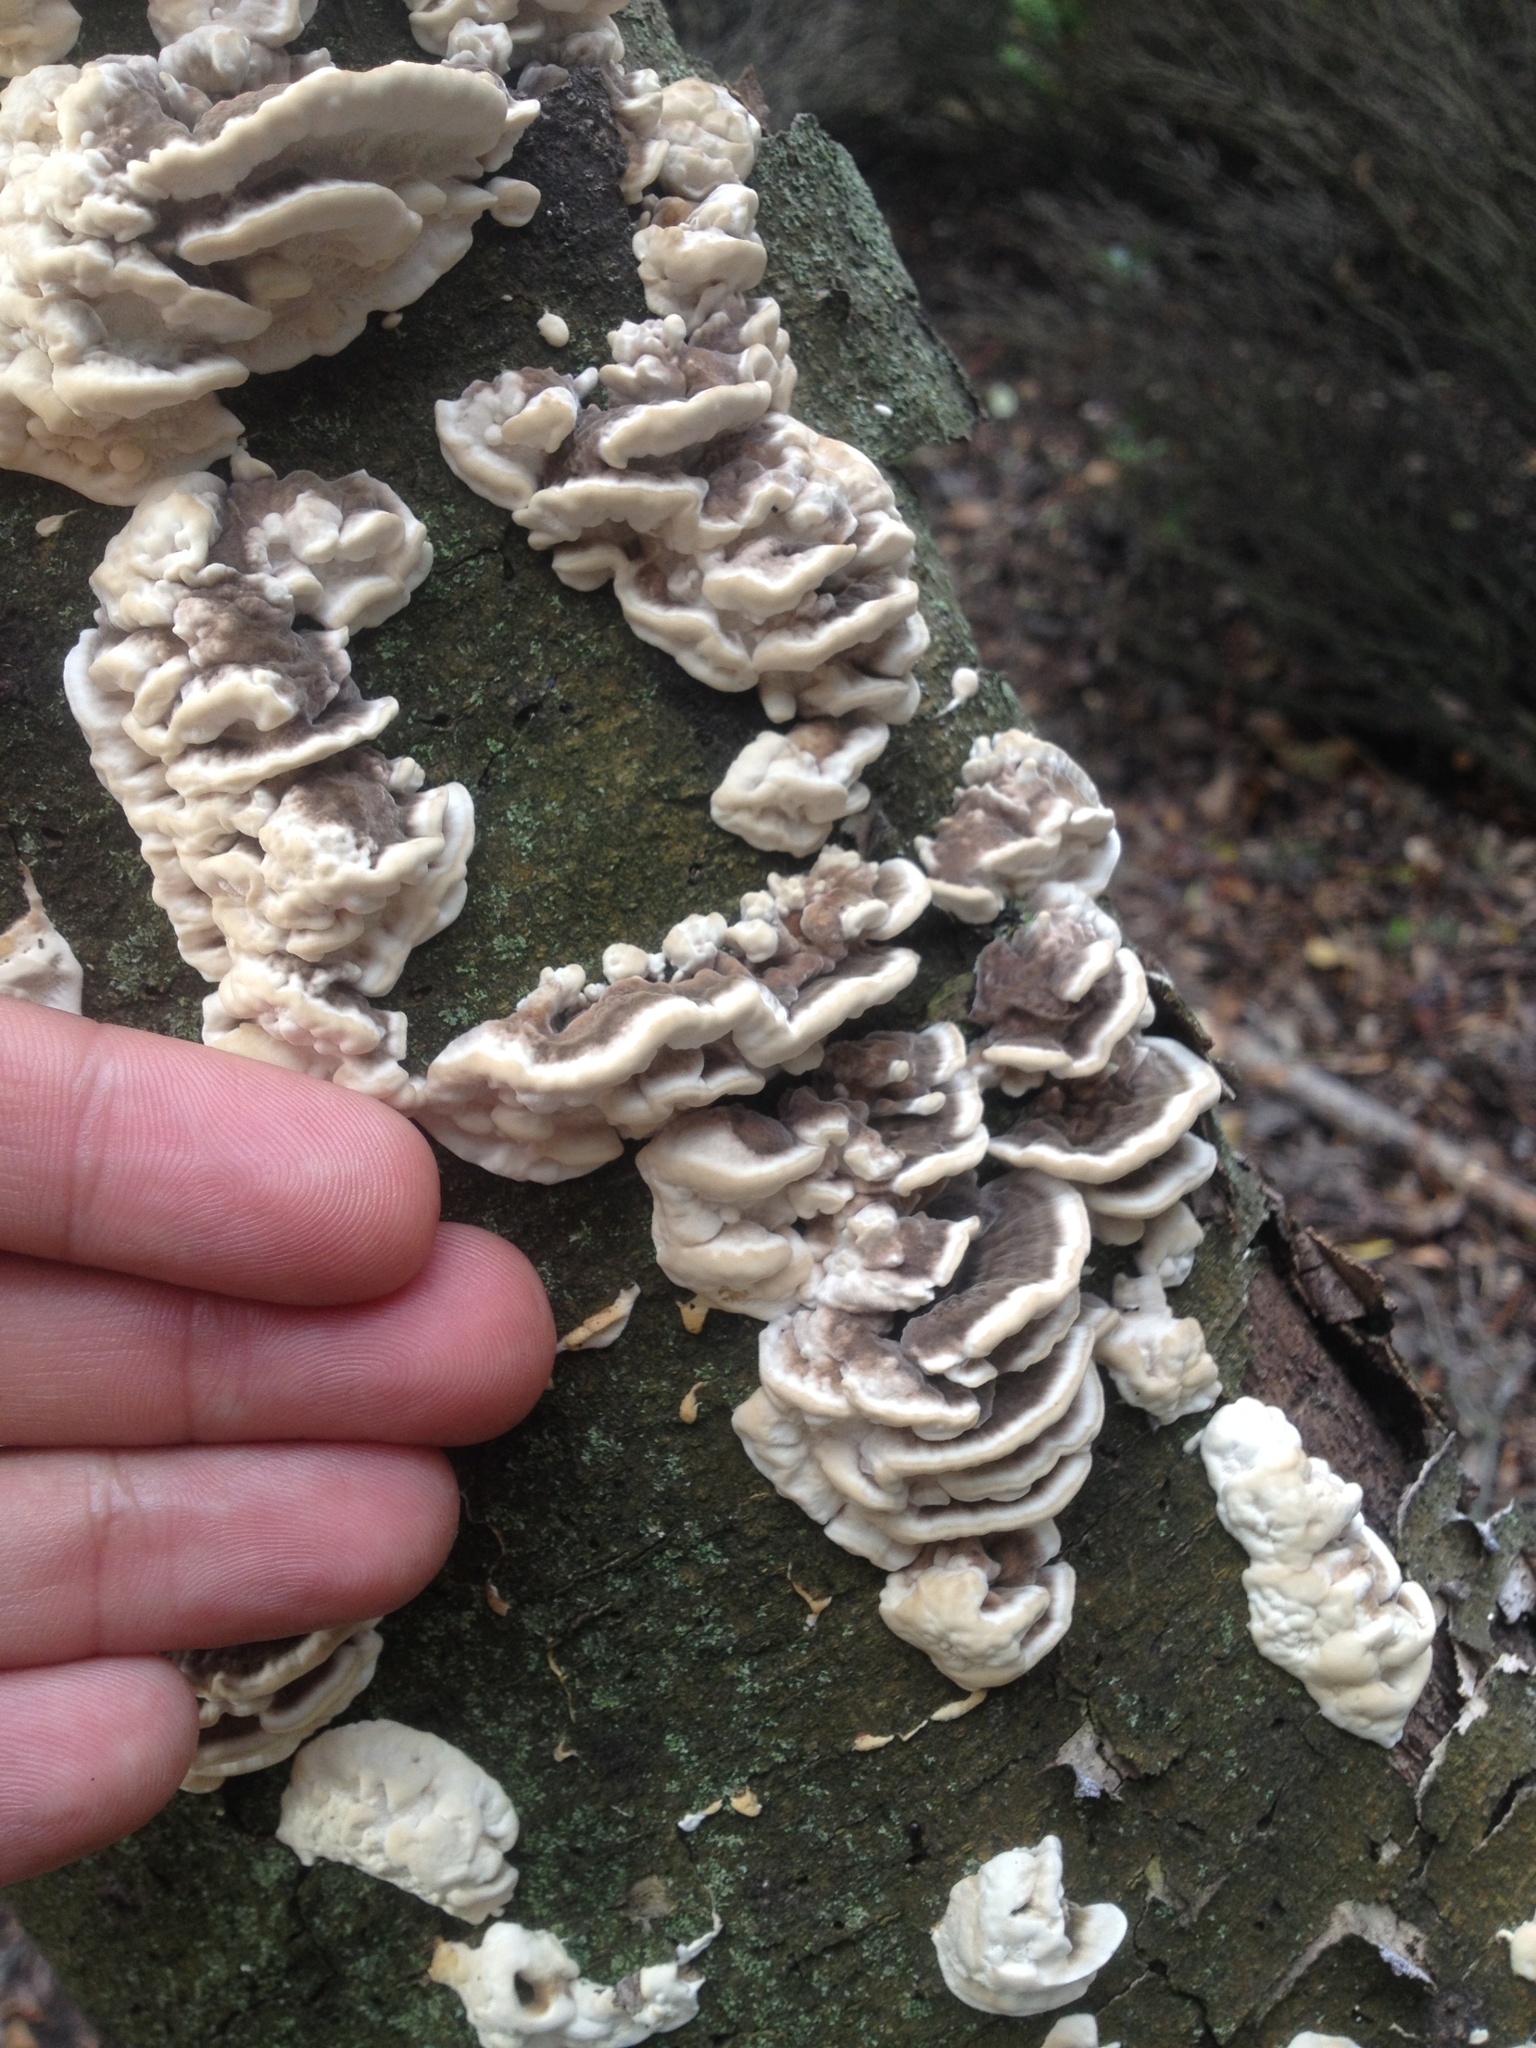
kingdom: Fungi
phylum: Basidiomycota
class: Agaricomycetes
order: Polyporales
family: Phanerochaetaceae
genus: Bjerkandera
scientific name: Bjerkandera adusta
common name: Smoky bracket
